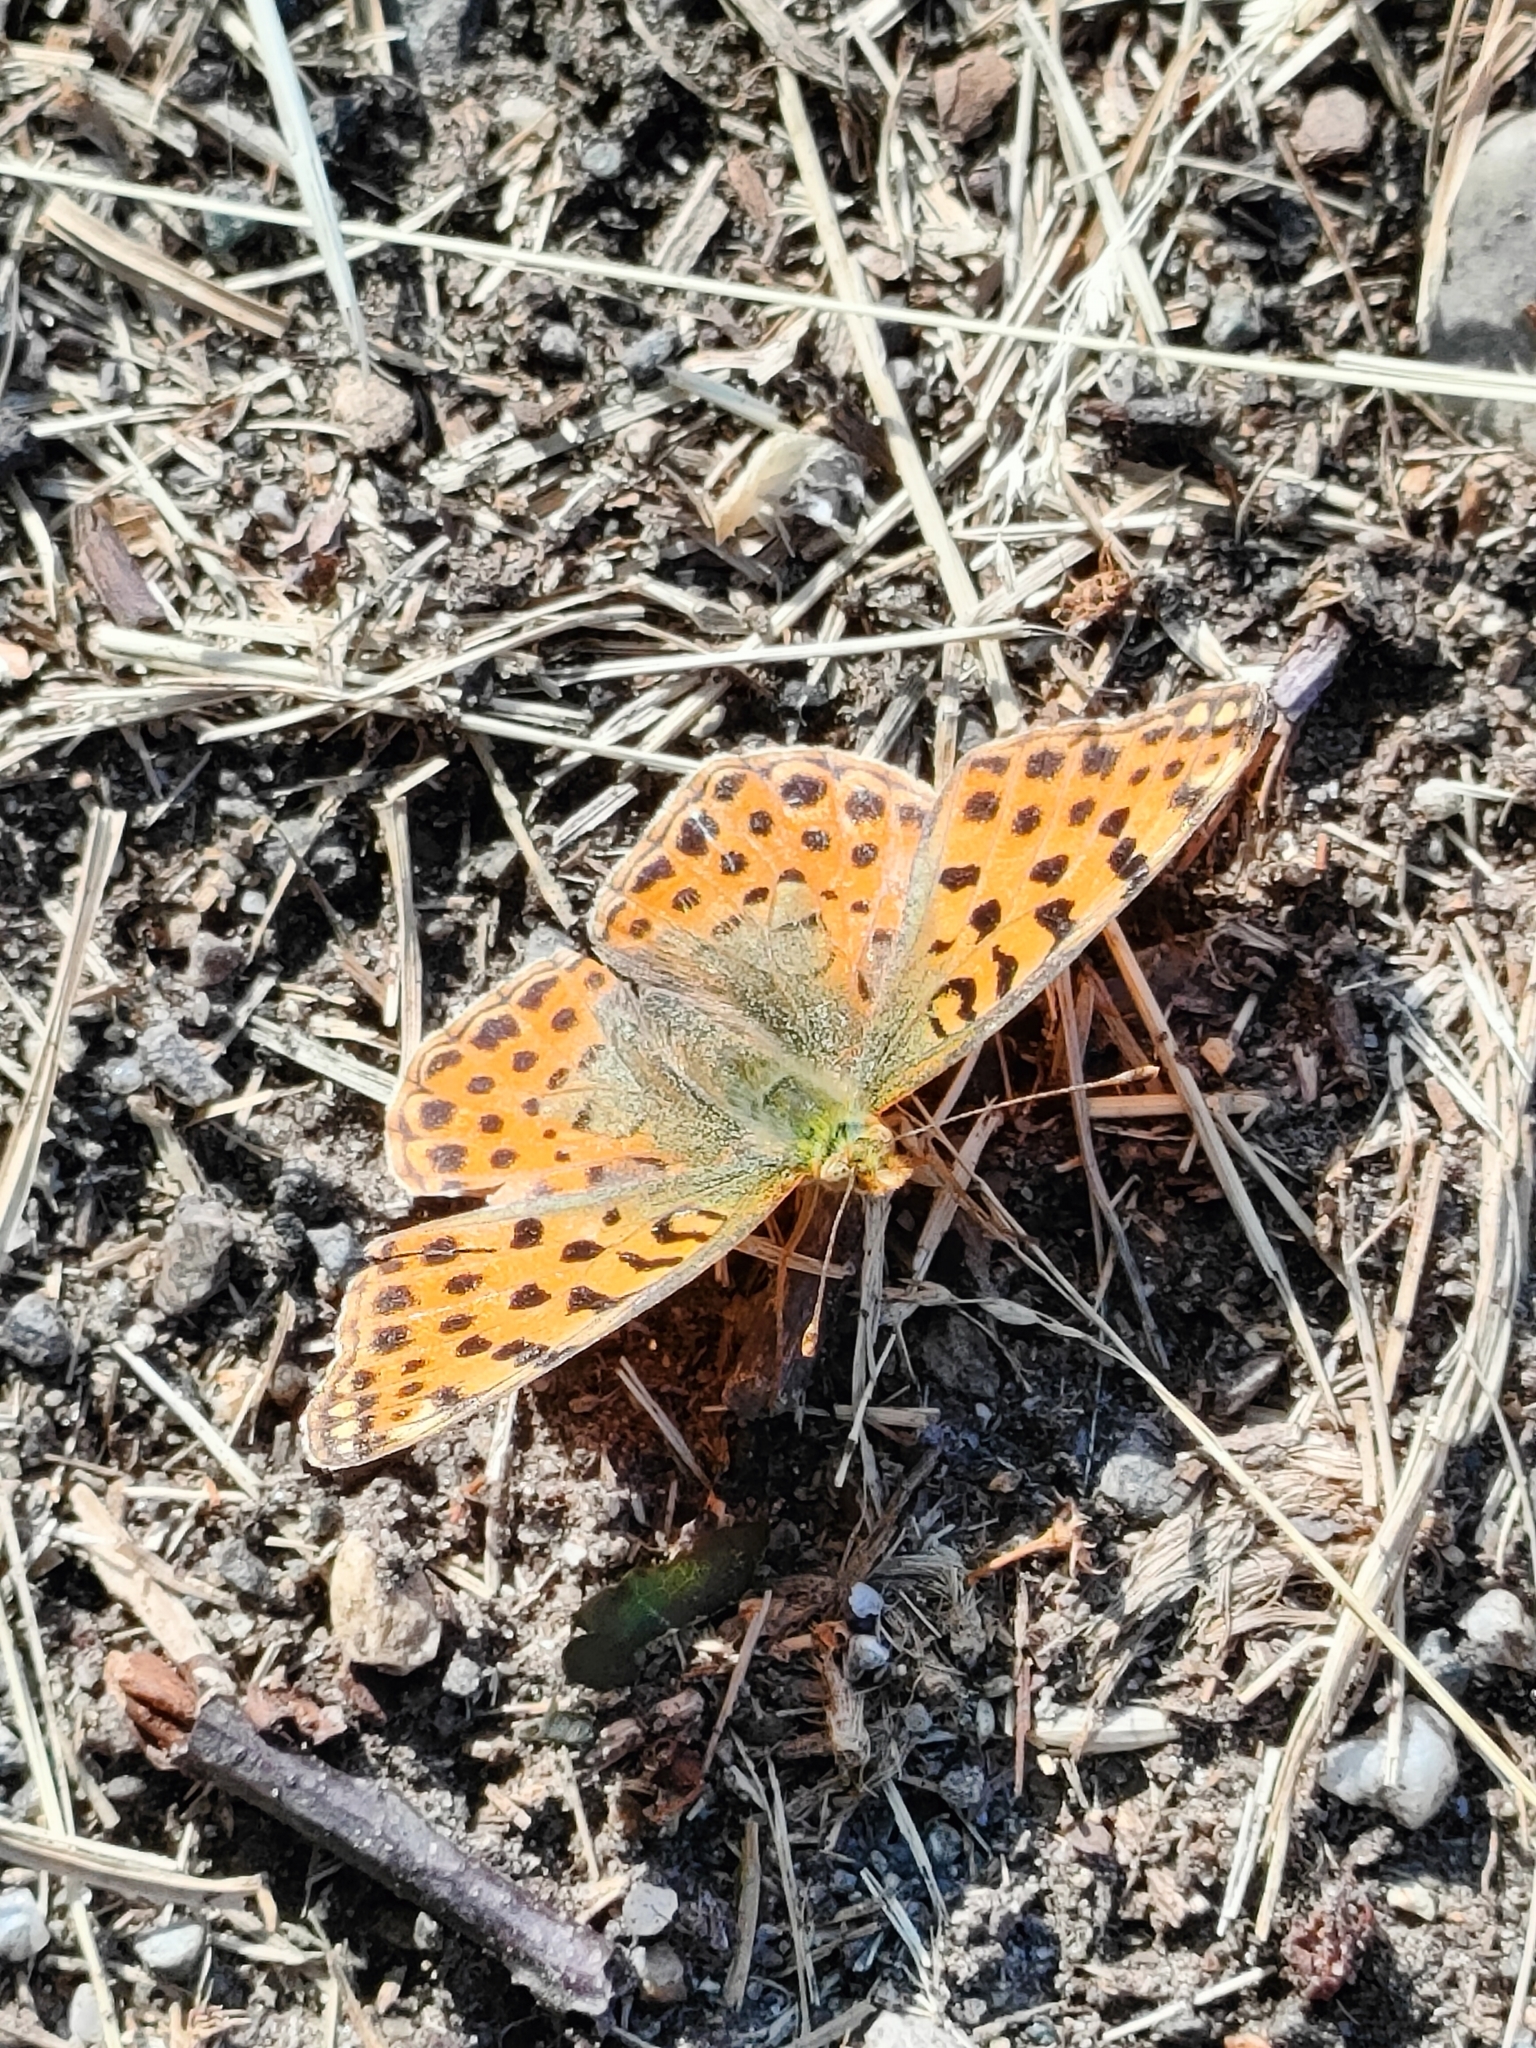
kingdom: Animalia
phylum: Arthropoda
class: Insecta
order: Lepidoptera
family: Nymphalidae
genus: Issoria
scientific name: Issoria lathonia
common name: Queen of spain fritillary
